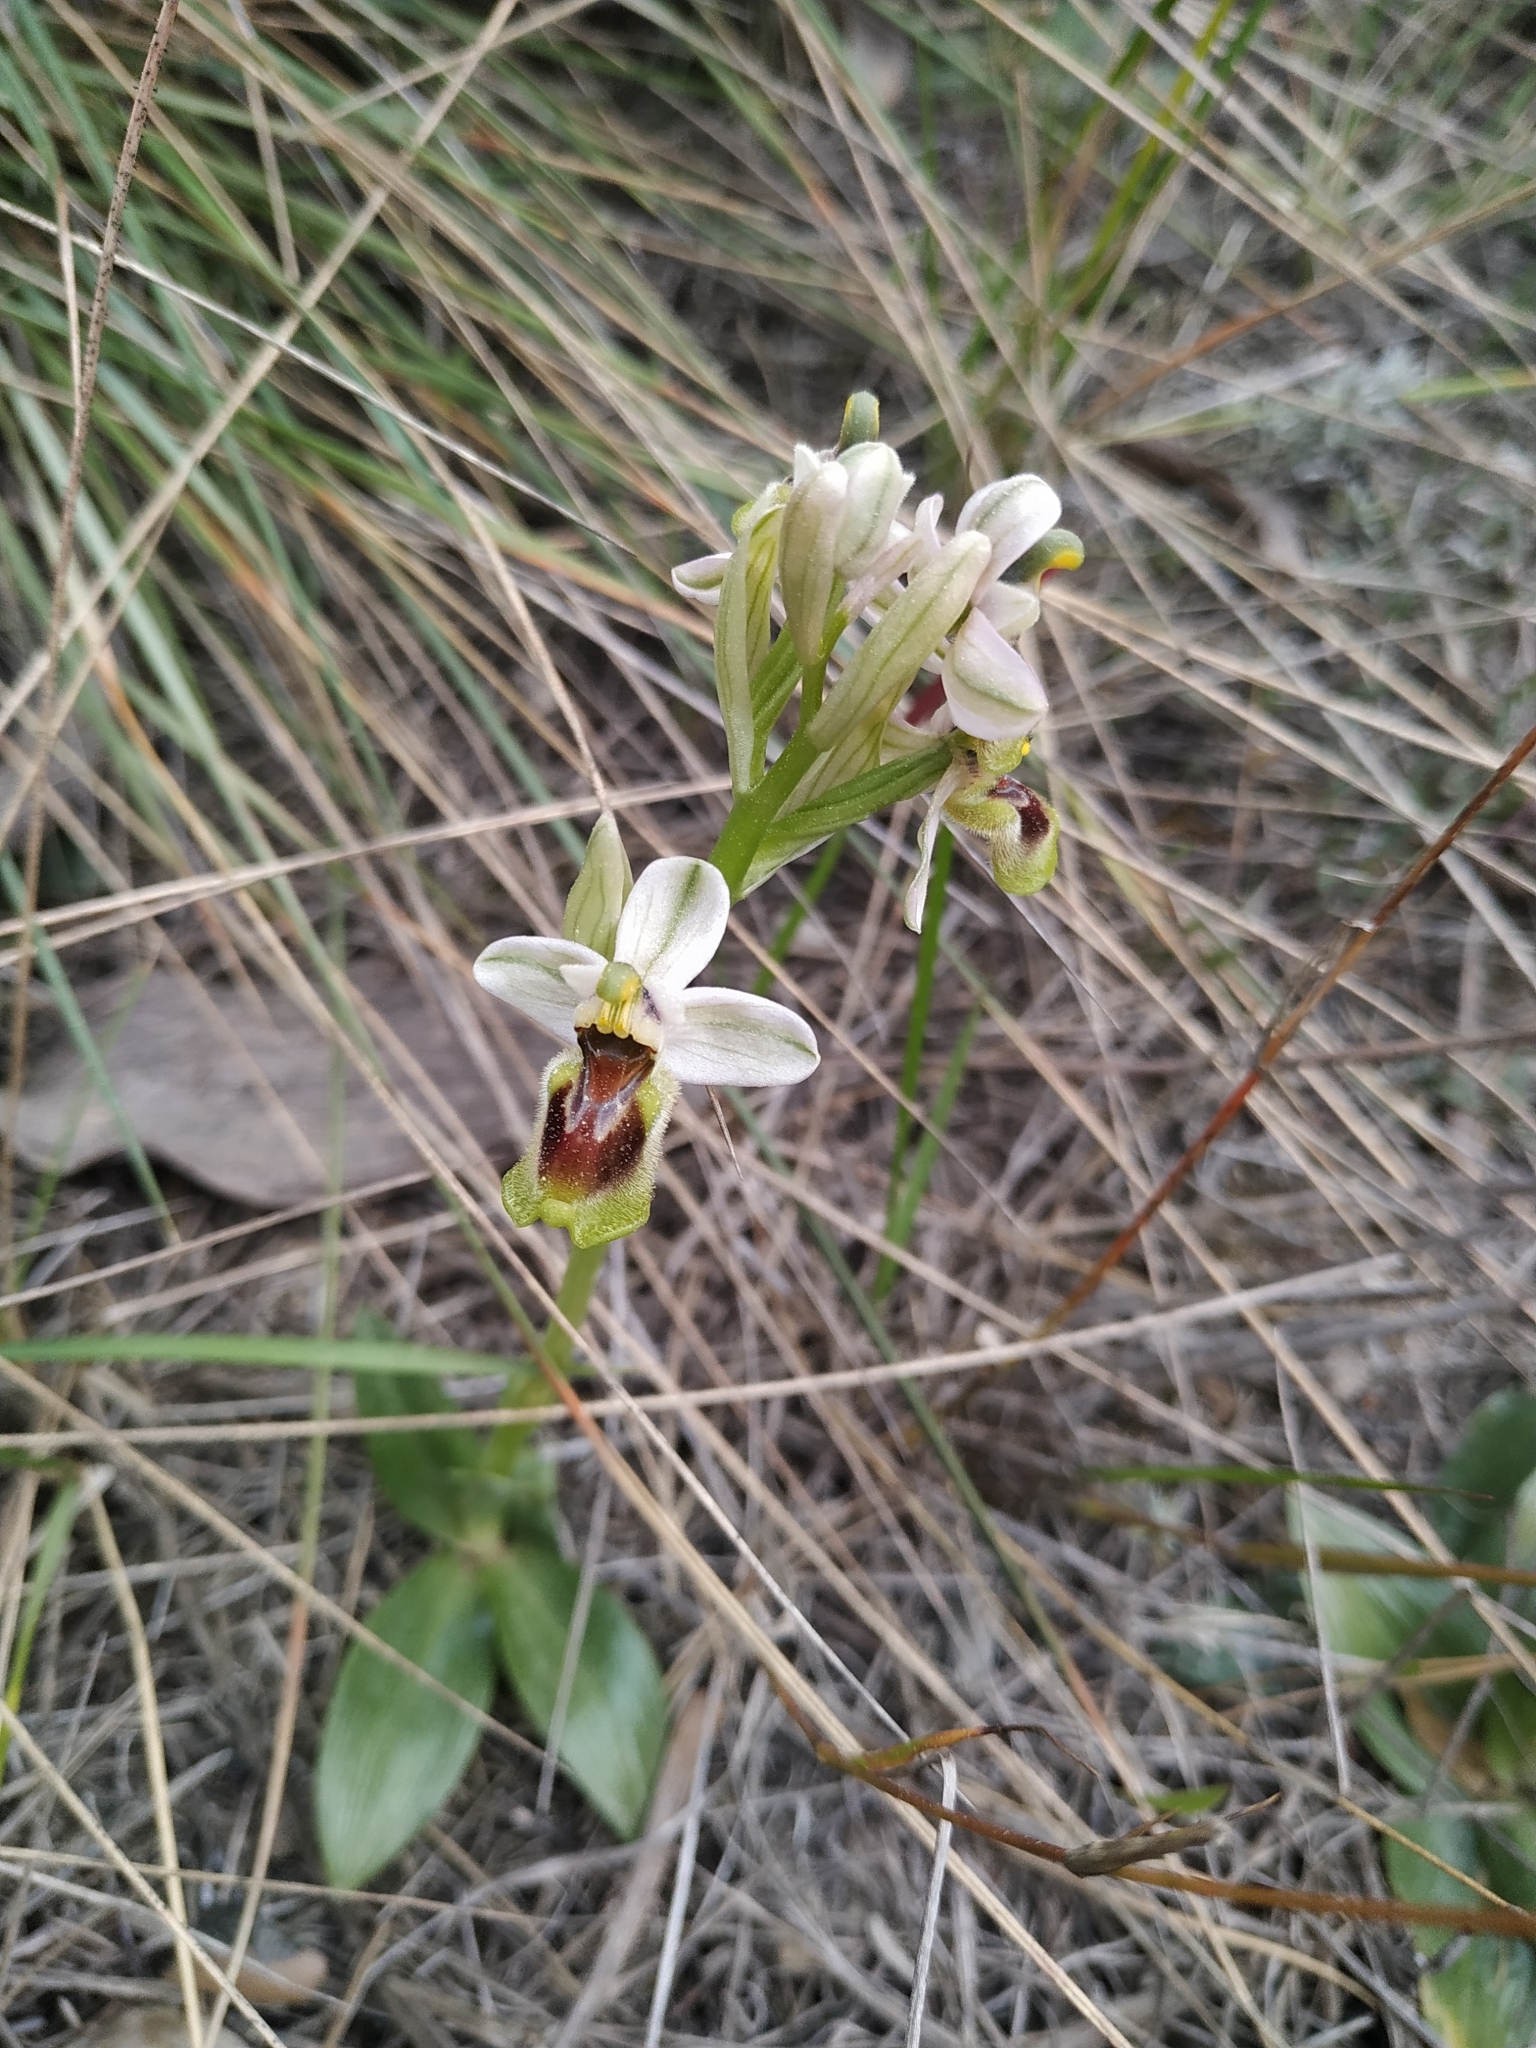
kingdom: Plantae
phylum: Tracheophyta
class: Liliopsida
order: Asparagales
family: Orchidaceae
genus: Ophrys
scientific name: Ophrys tenthredinifera
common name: Sawfly orchid
